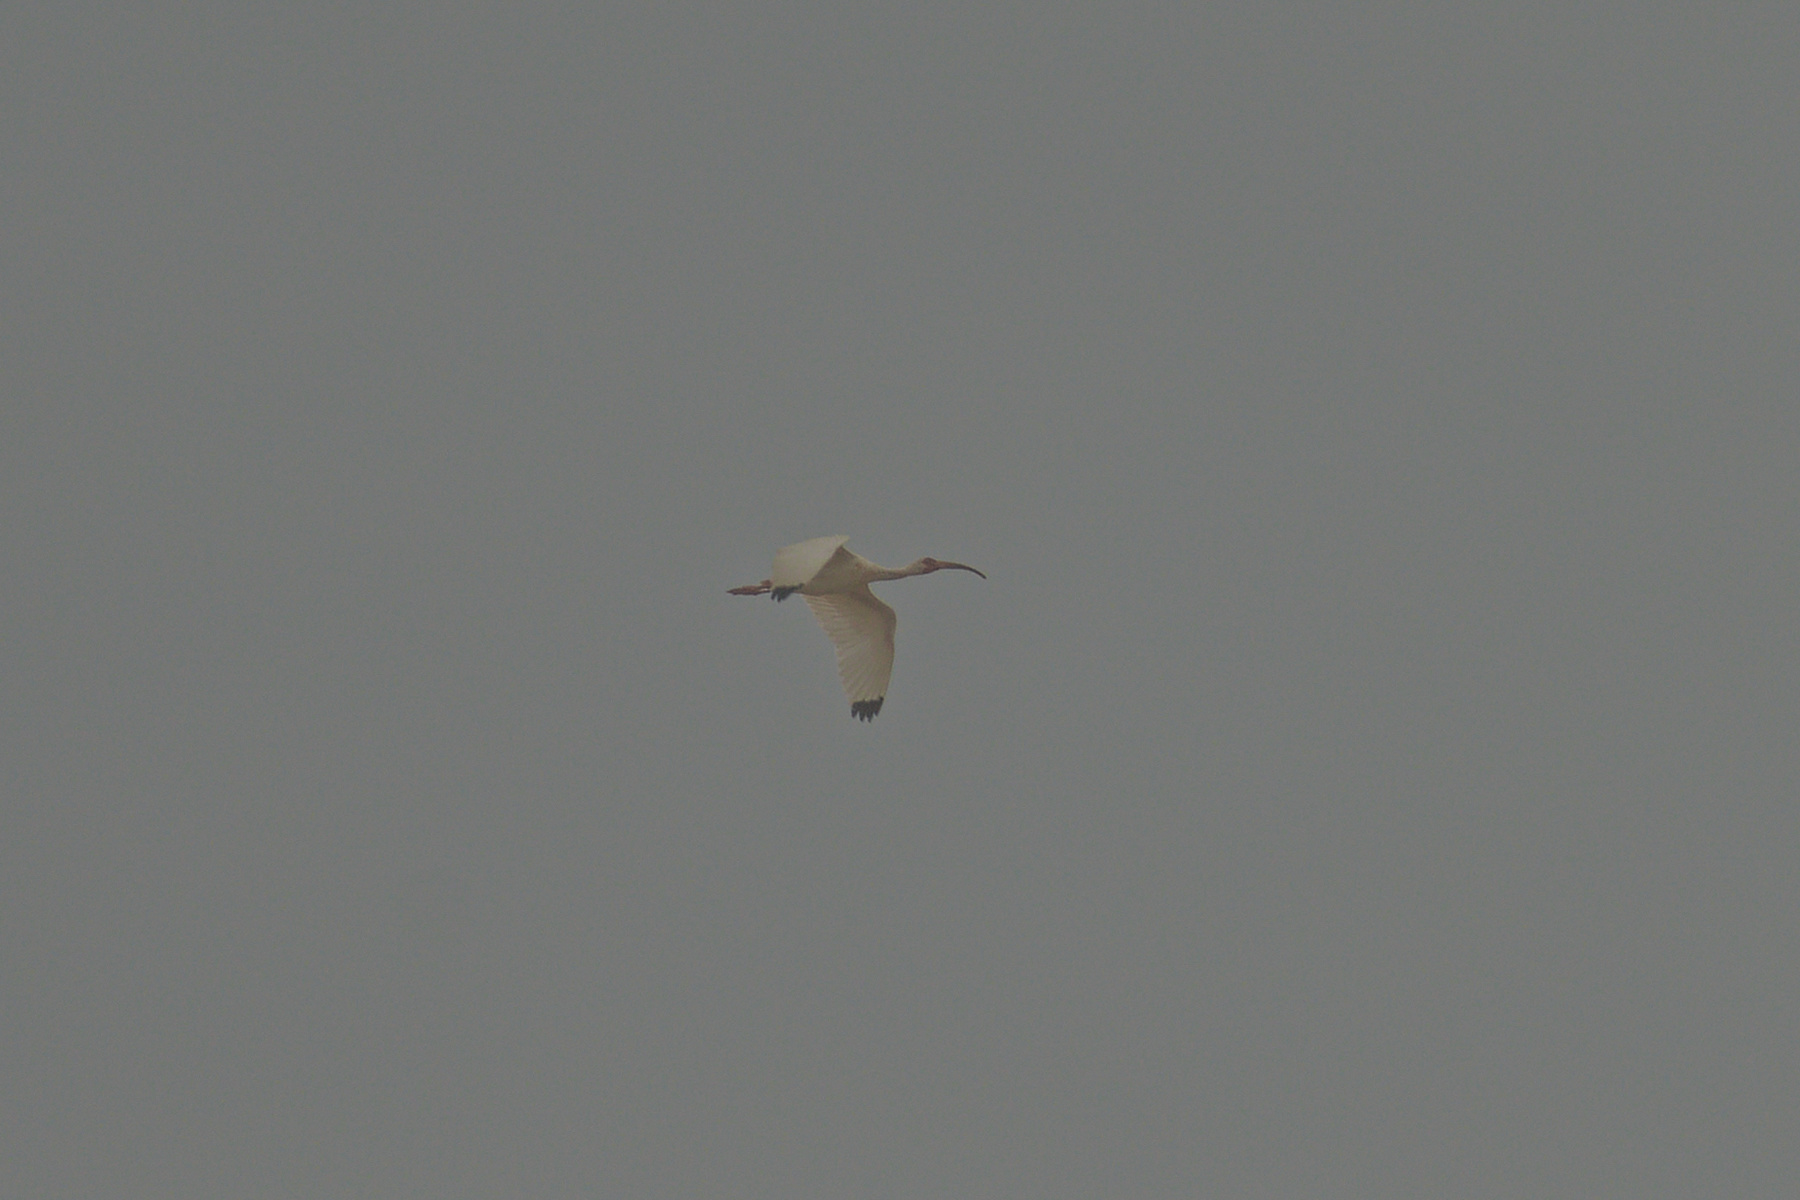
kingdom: Animalia
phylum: Chordata
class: Aves
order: Pelecaniformes
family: Threskiornithidae
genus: Eudocimus
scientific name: Eudocimus albus
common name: White ibis
